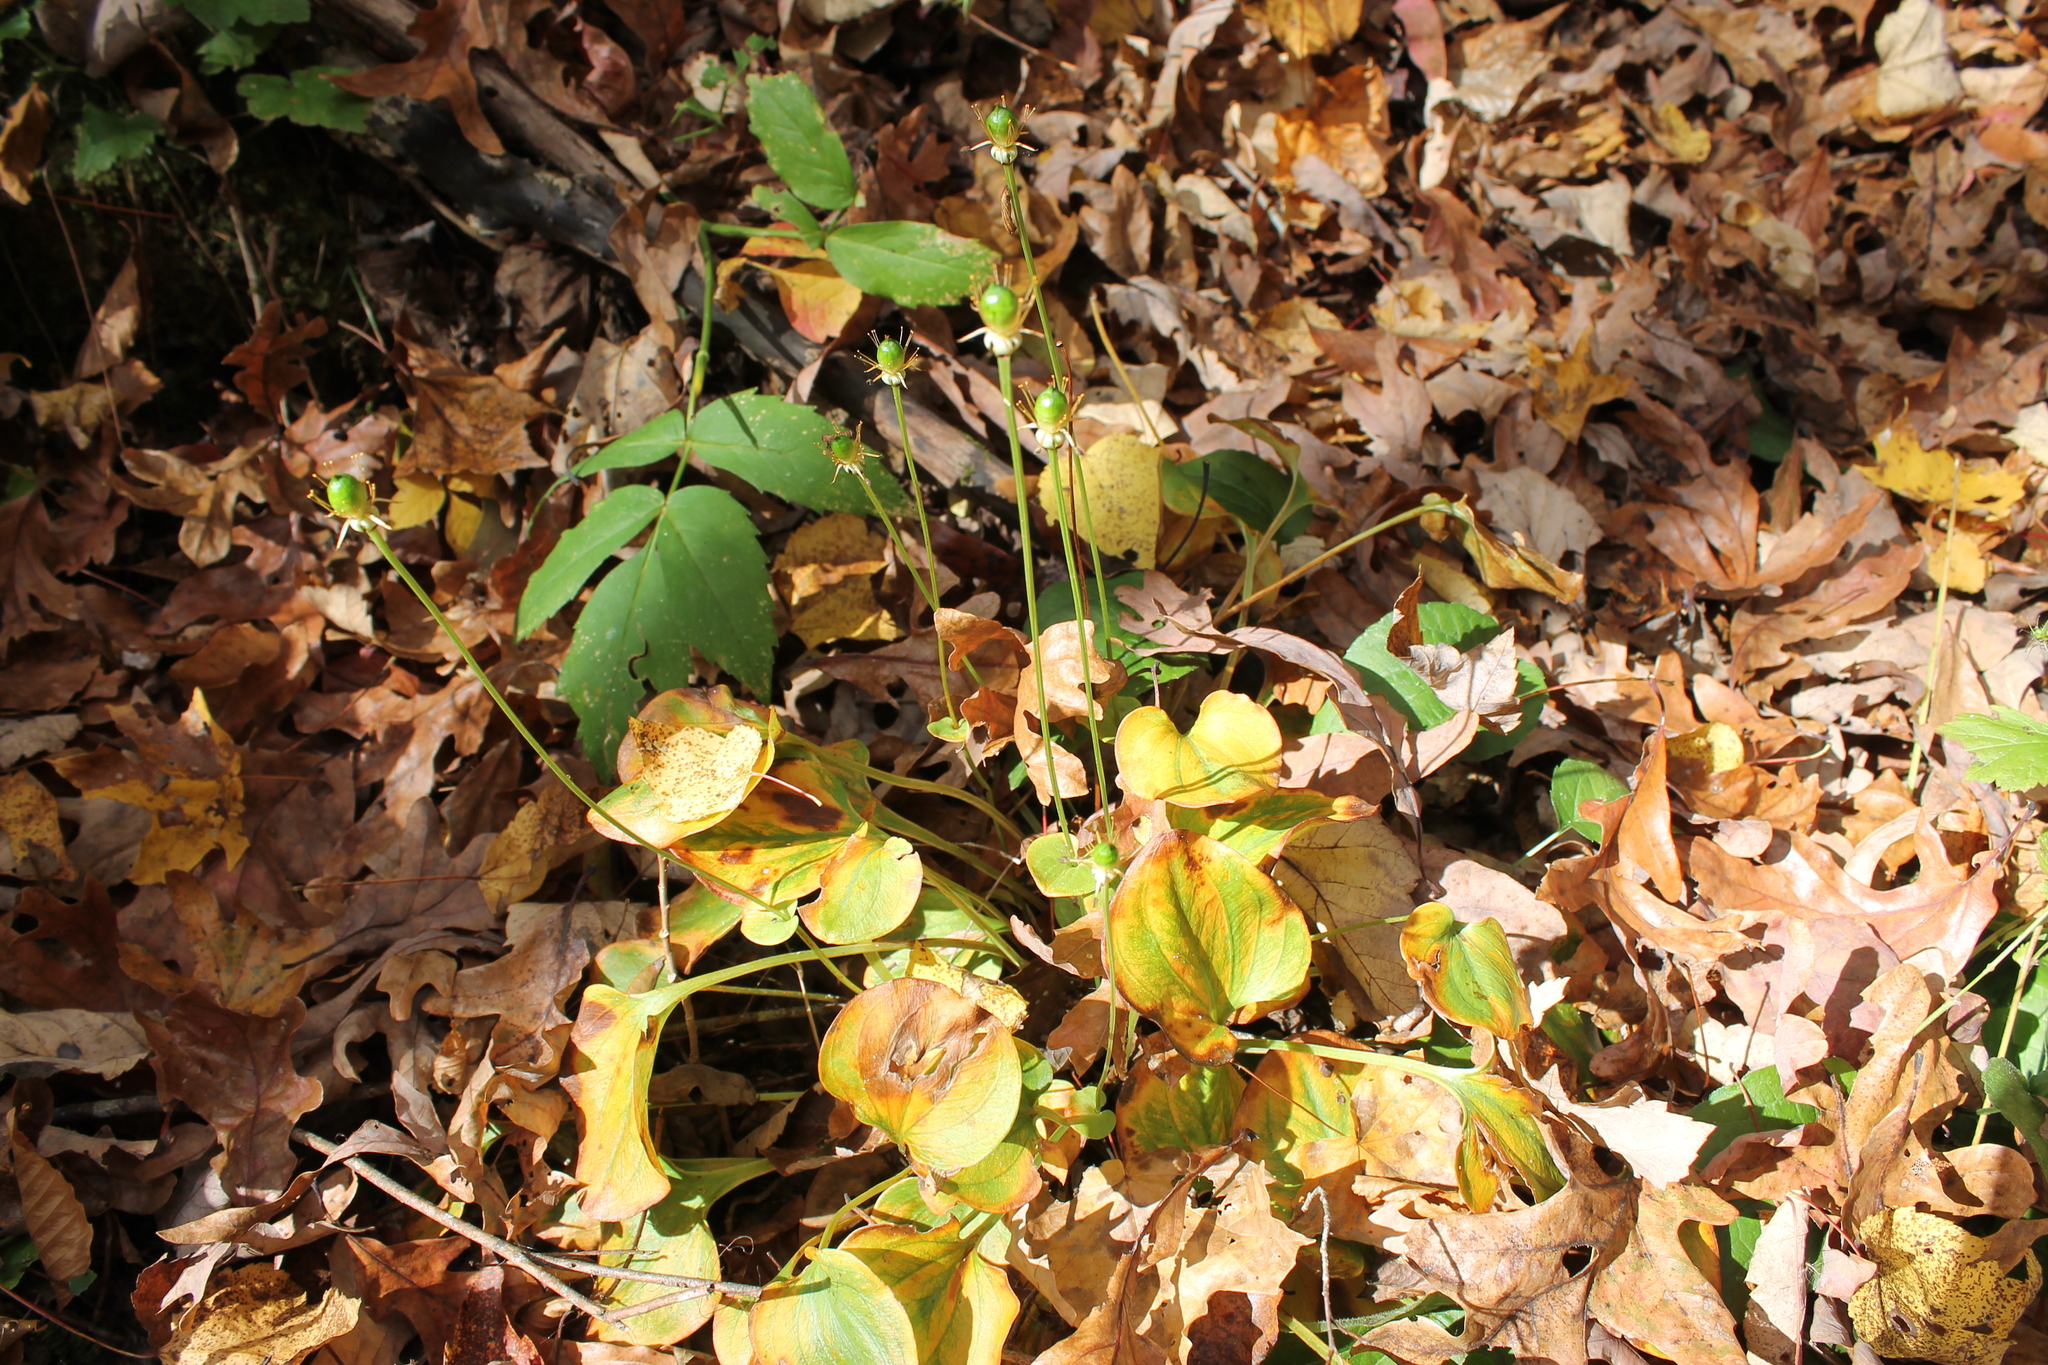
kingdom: Plantae
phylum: Tracheophyta
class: Magnoliopsida
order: Celastrales
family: Parnassiaceae
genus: Parnassia
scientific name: Parnassia grandifolia
